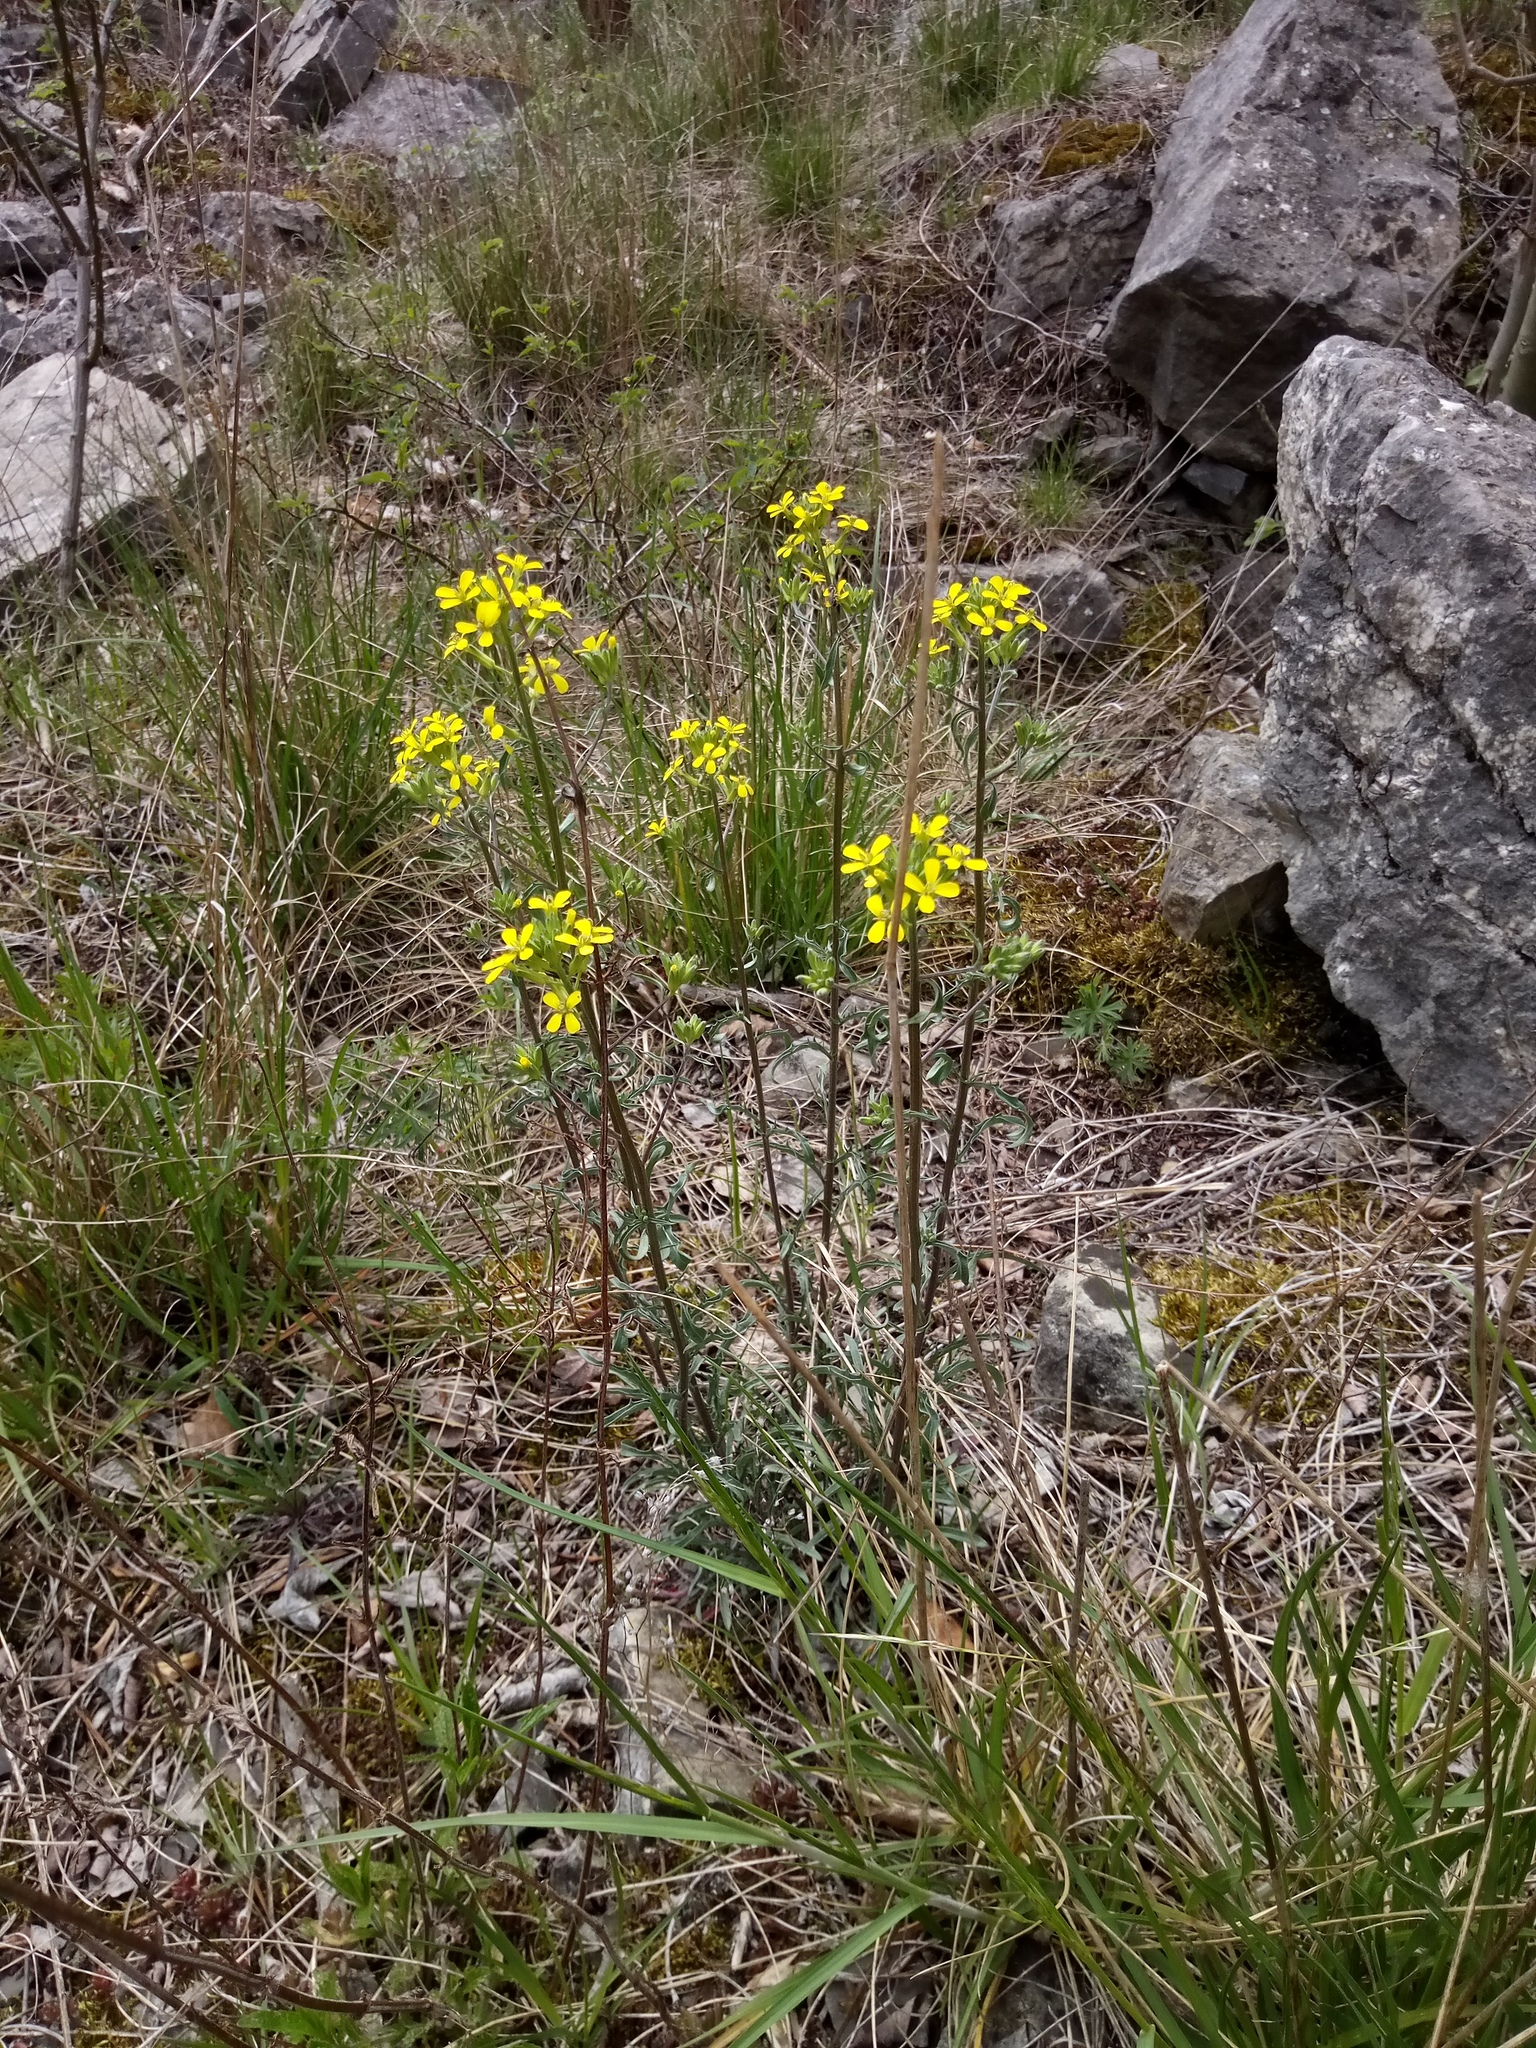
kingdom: Plantae
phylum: Tracheophyta
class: Magnoliopsida
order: Brassicales
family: Brassicaceae
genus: Erysimum
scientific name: Erysimum crepidifolium
